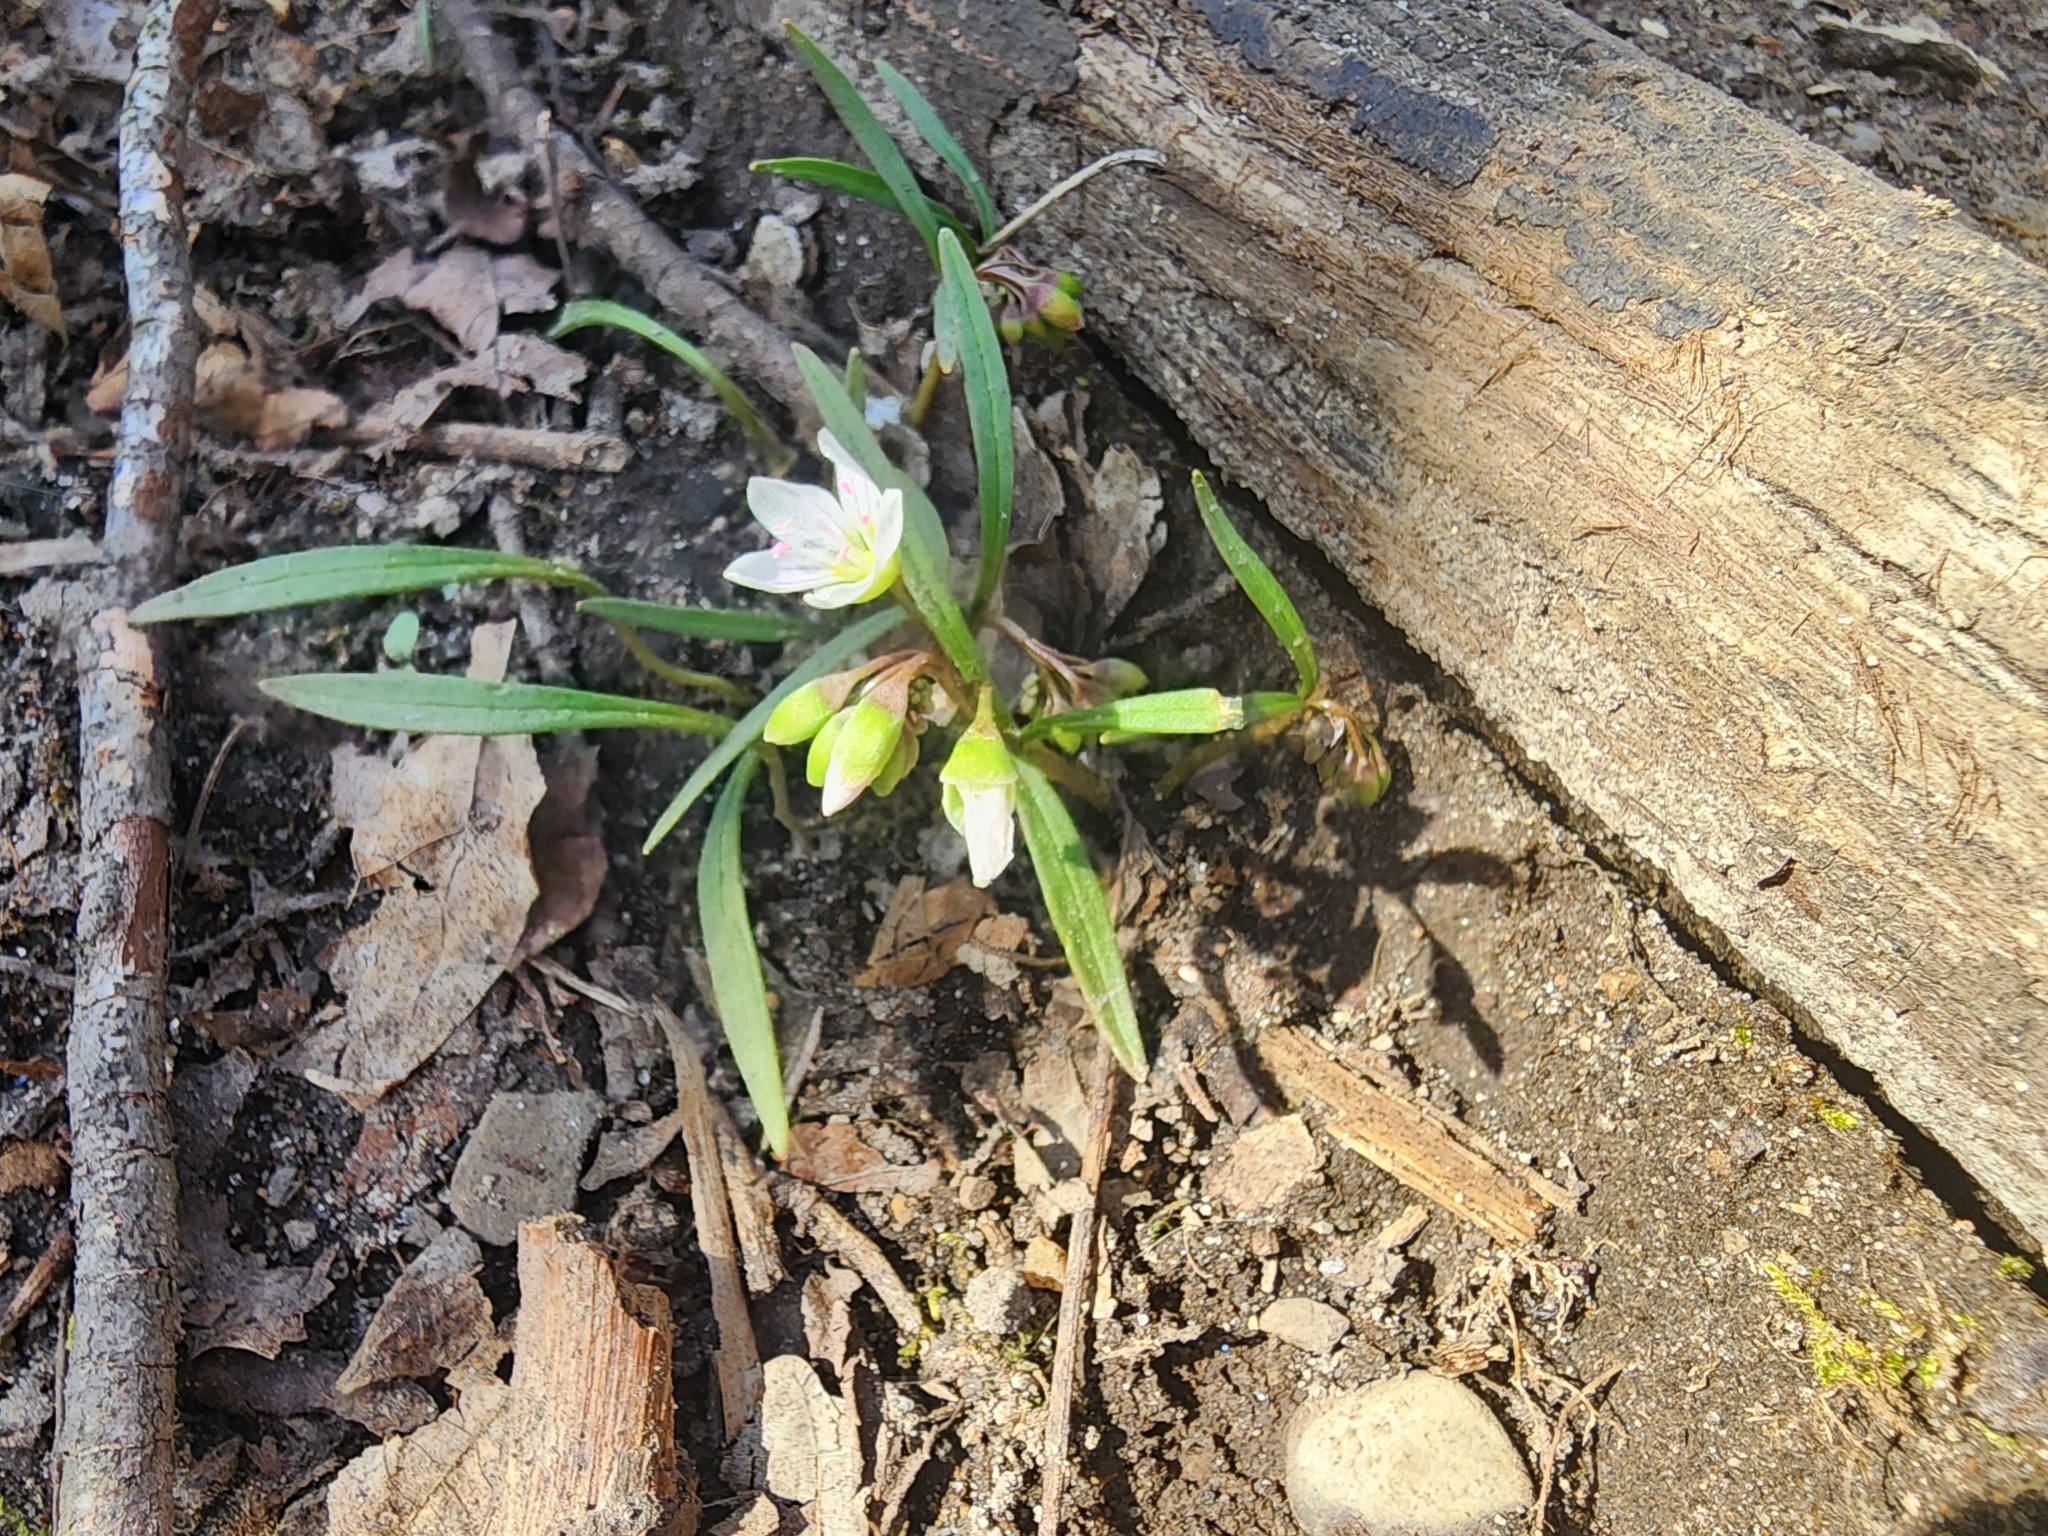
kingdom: Plantae
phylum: Tracheophyta
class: Magnoliopsida
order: Caryophyllales
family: Montiaceae
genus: Claytonia
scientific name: Claytonia virginica
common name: Virginia springbeauty
